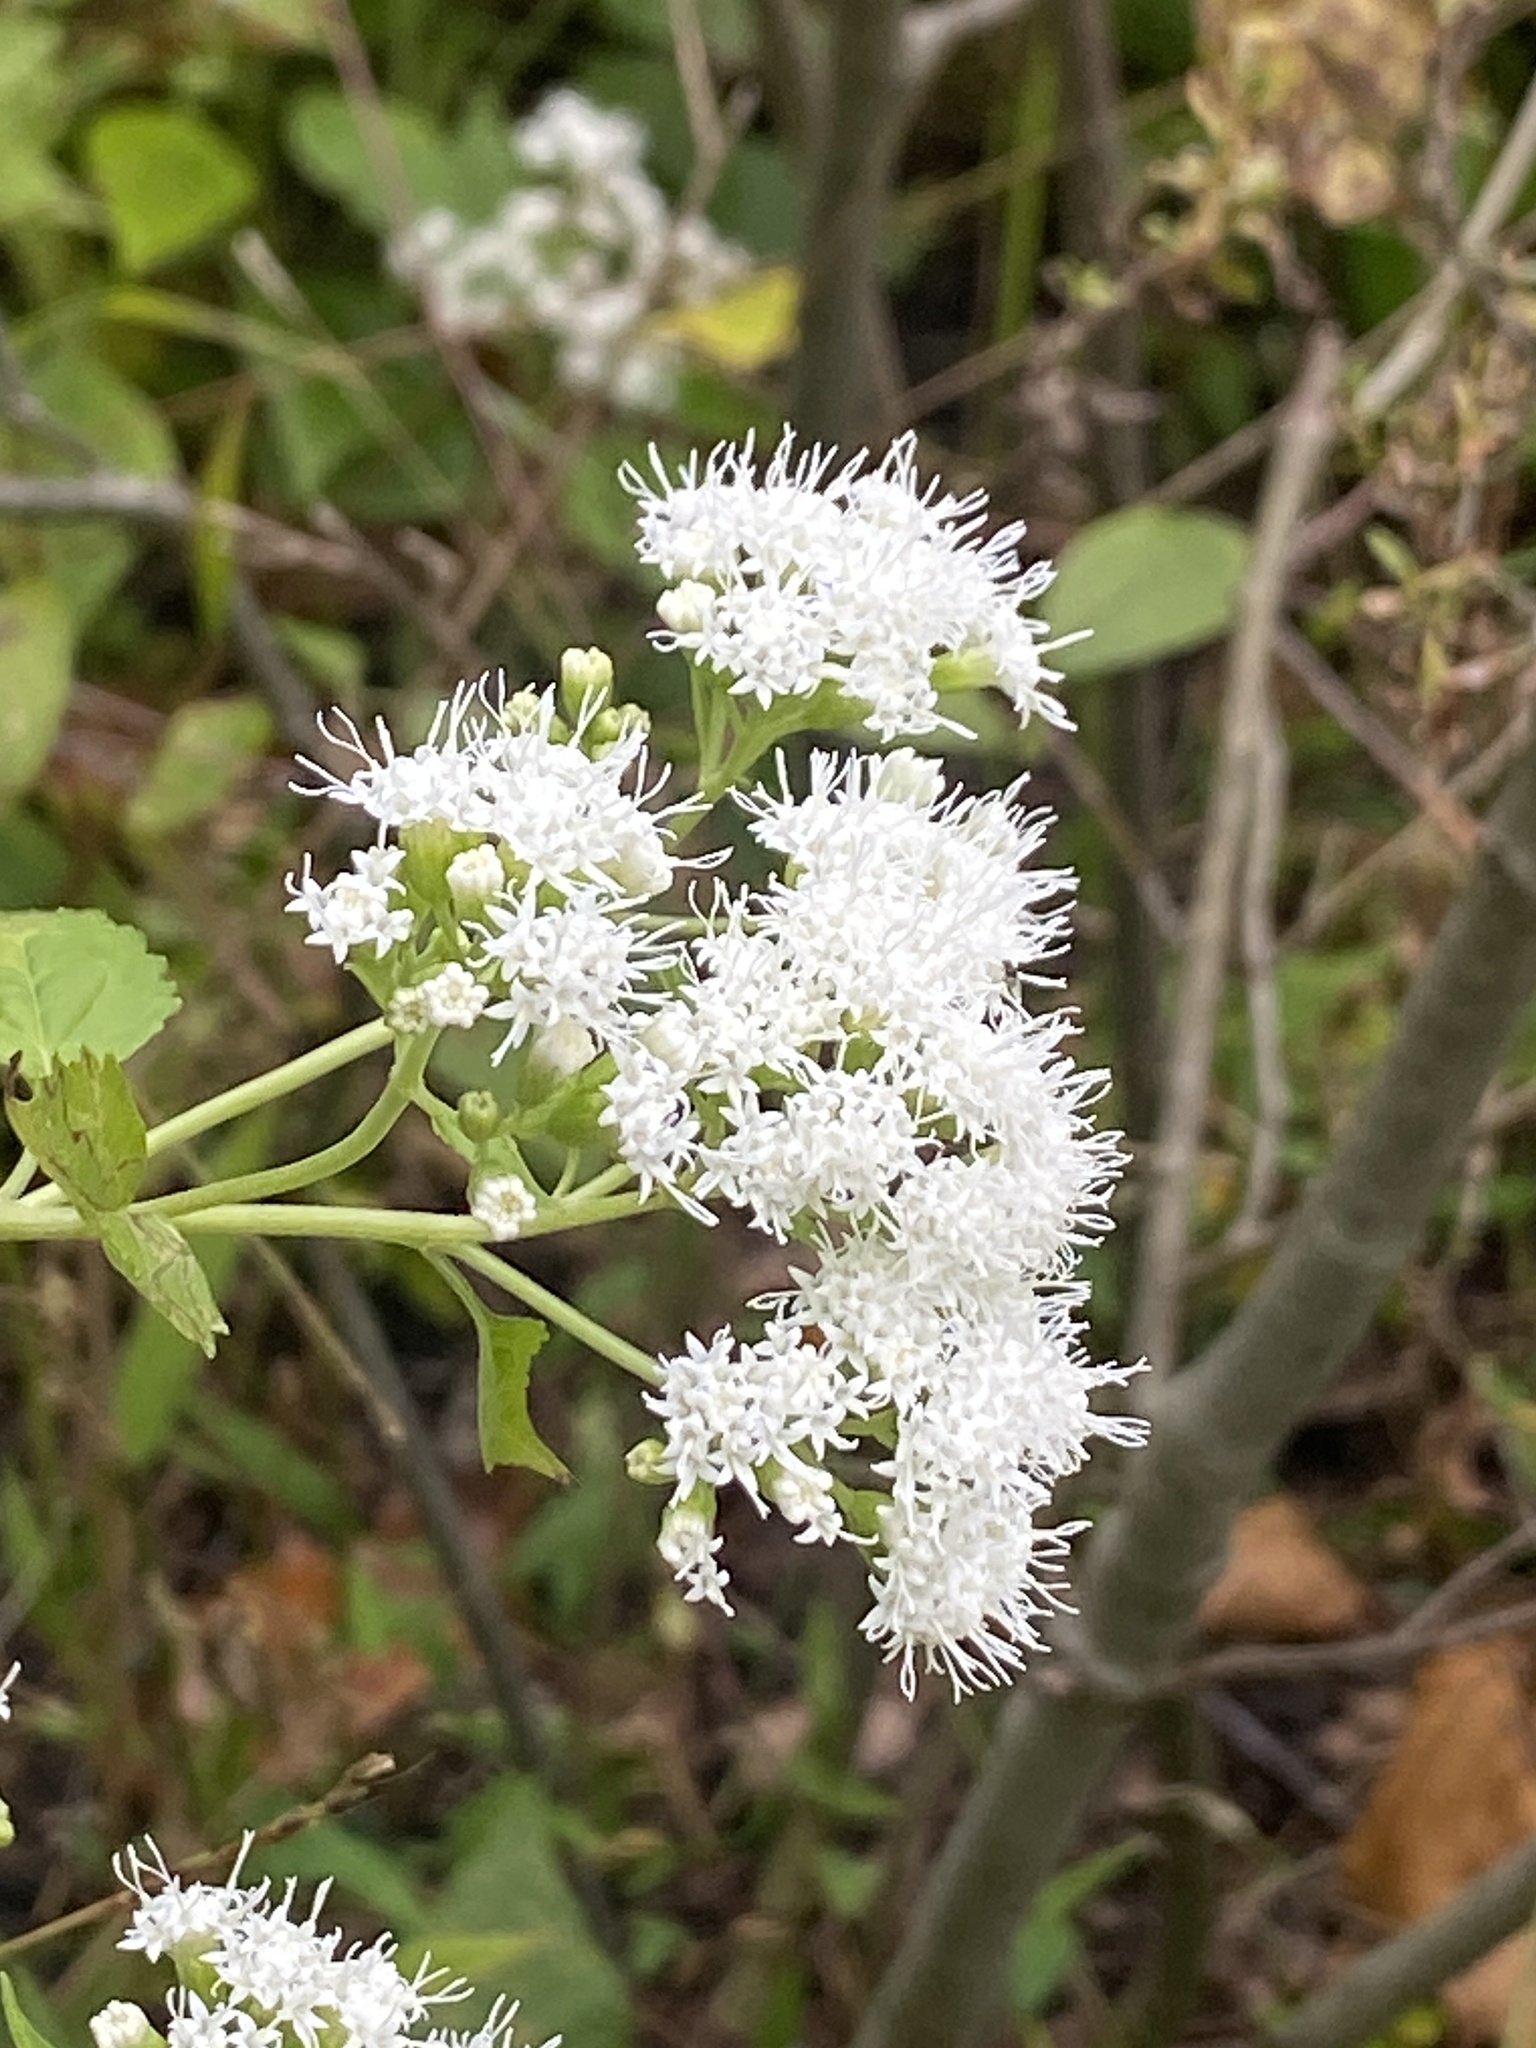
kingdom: Plantae
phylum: Tracheophyta
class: Magnoliopsida
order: Asterales
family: Asteraceae
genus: Ageratina
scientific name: Ageratina altissima
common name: White snakeroot
